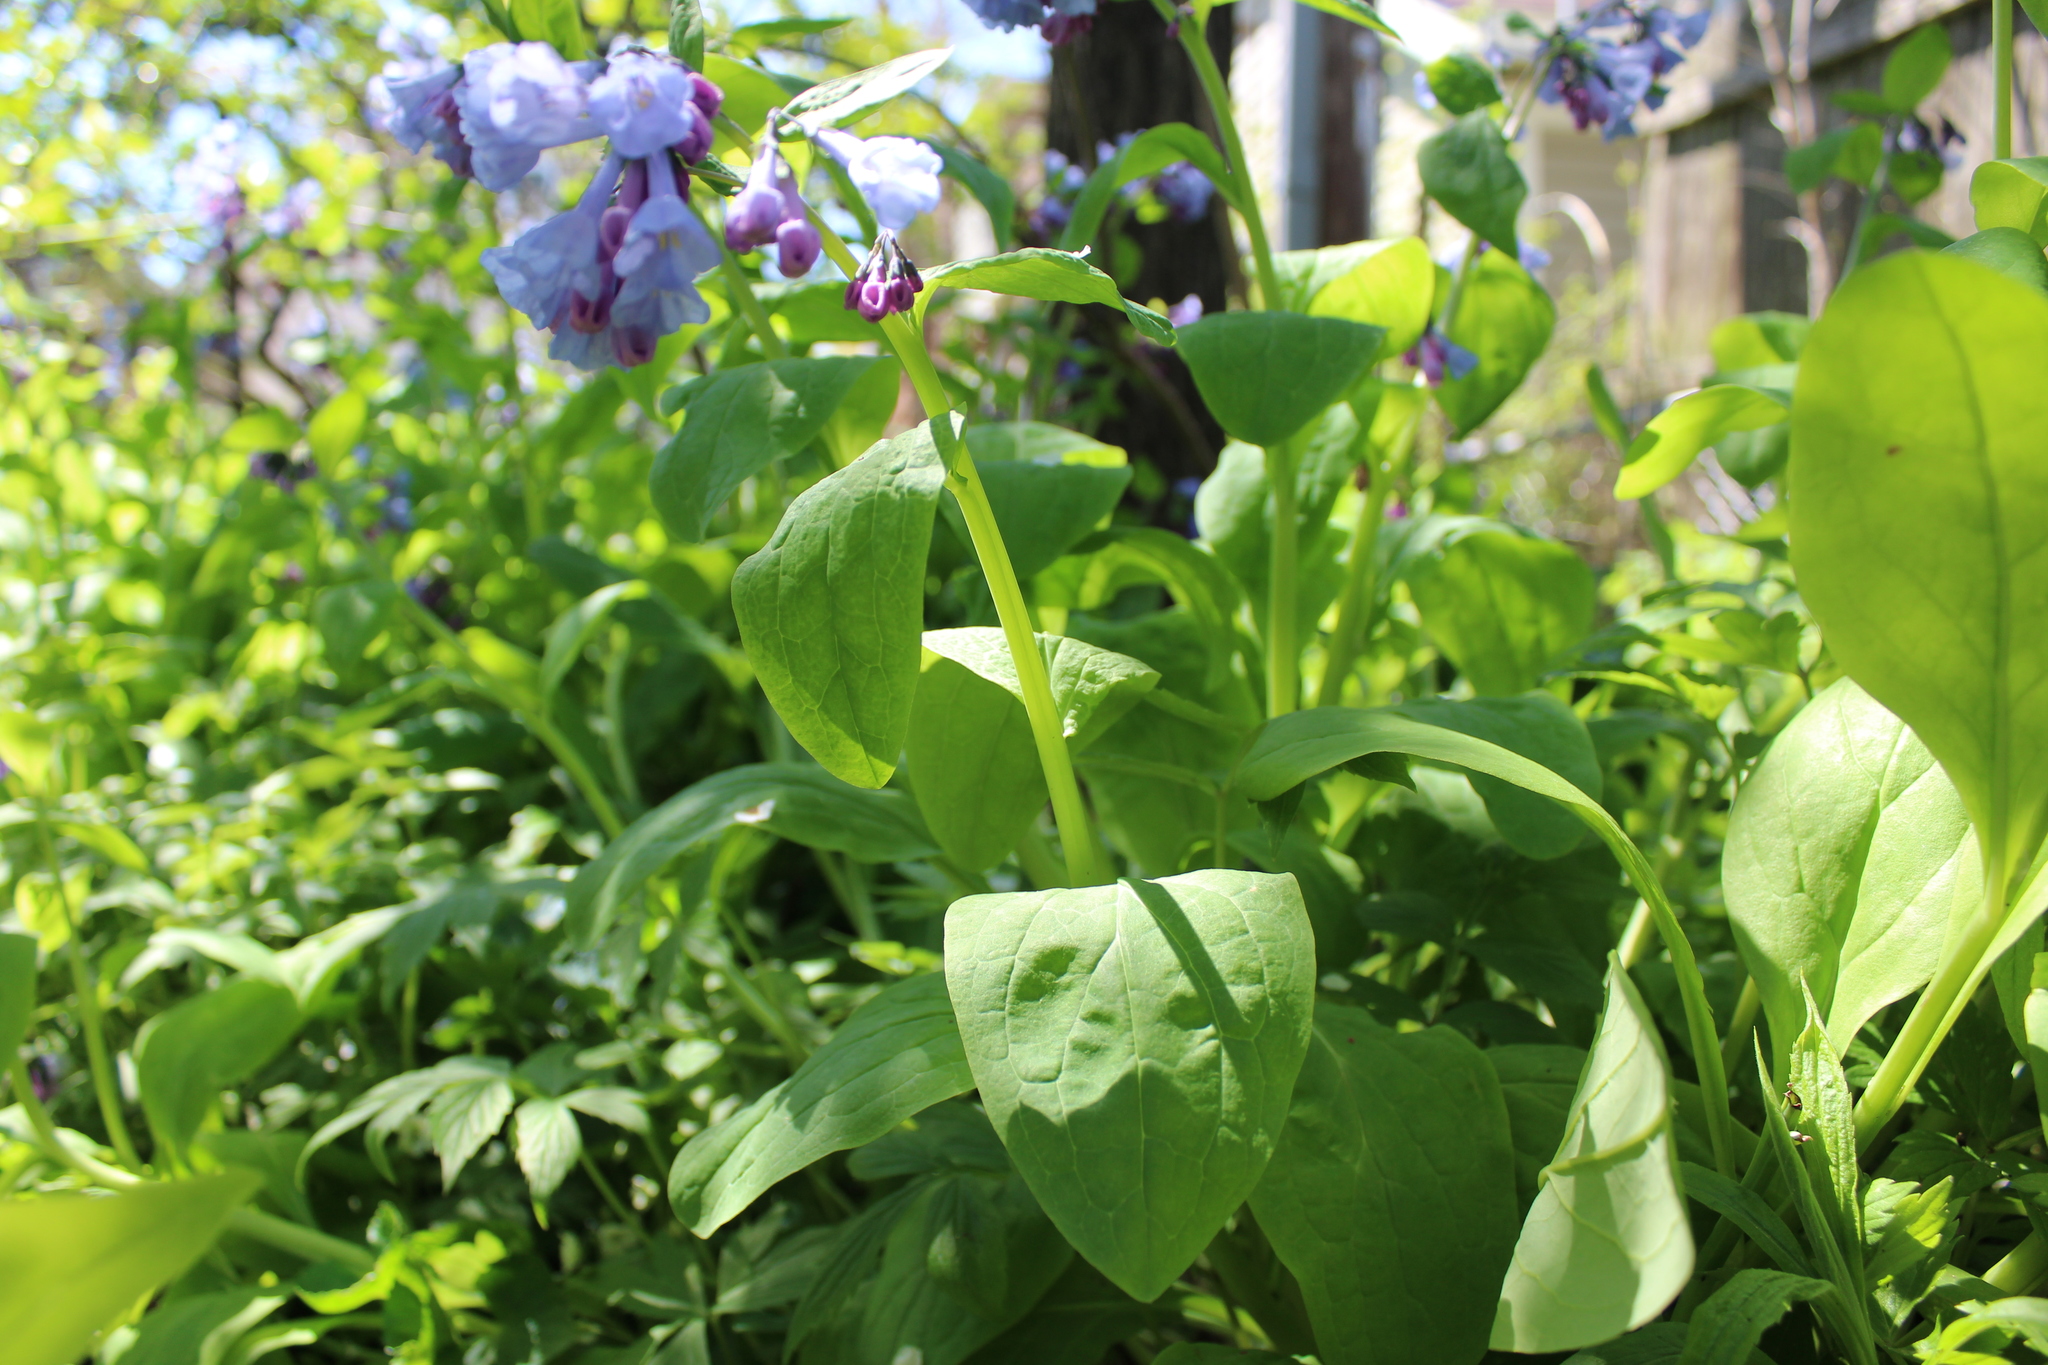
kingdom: Plantae
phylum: Tracheophyta
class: Magnoliopsida
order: Boraginales
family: Boraginaceae
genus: Mertensia
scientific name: Mertensia virginica
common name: Virginia bluebells
